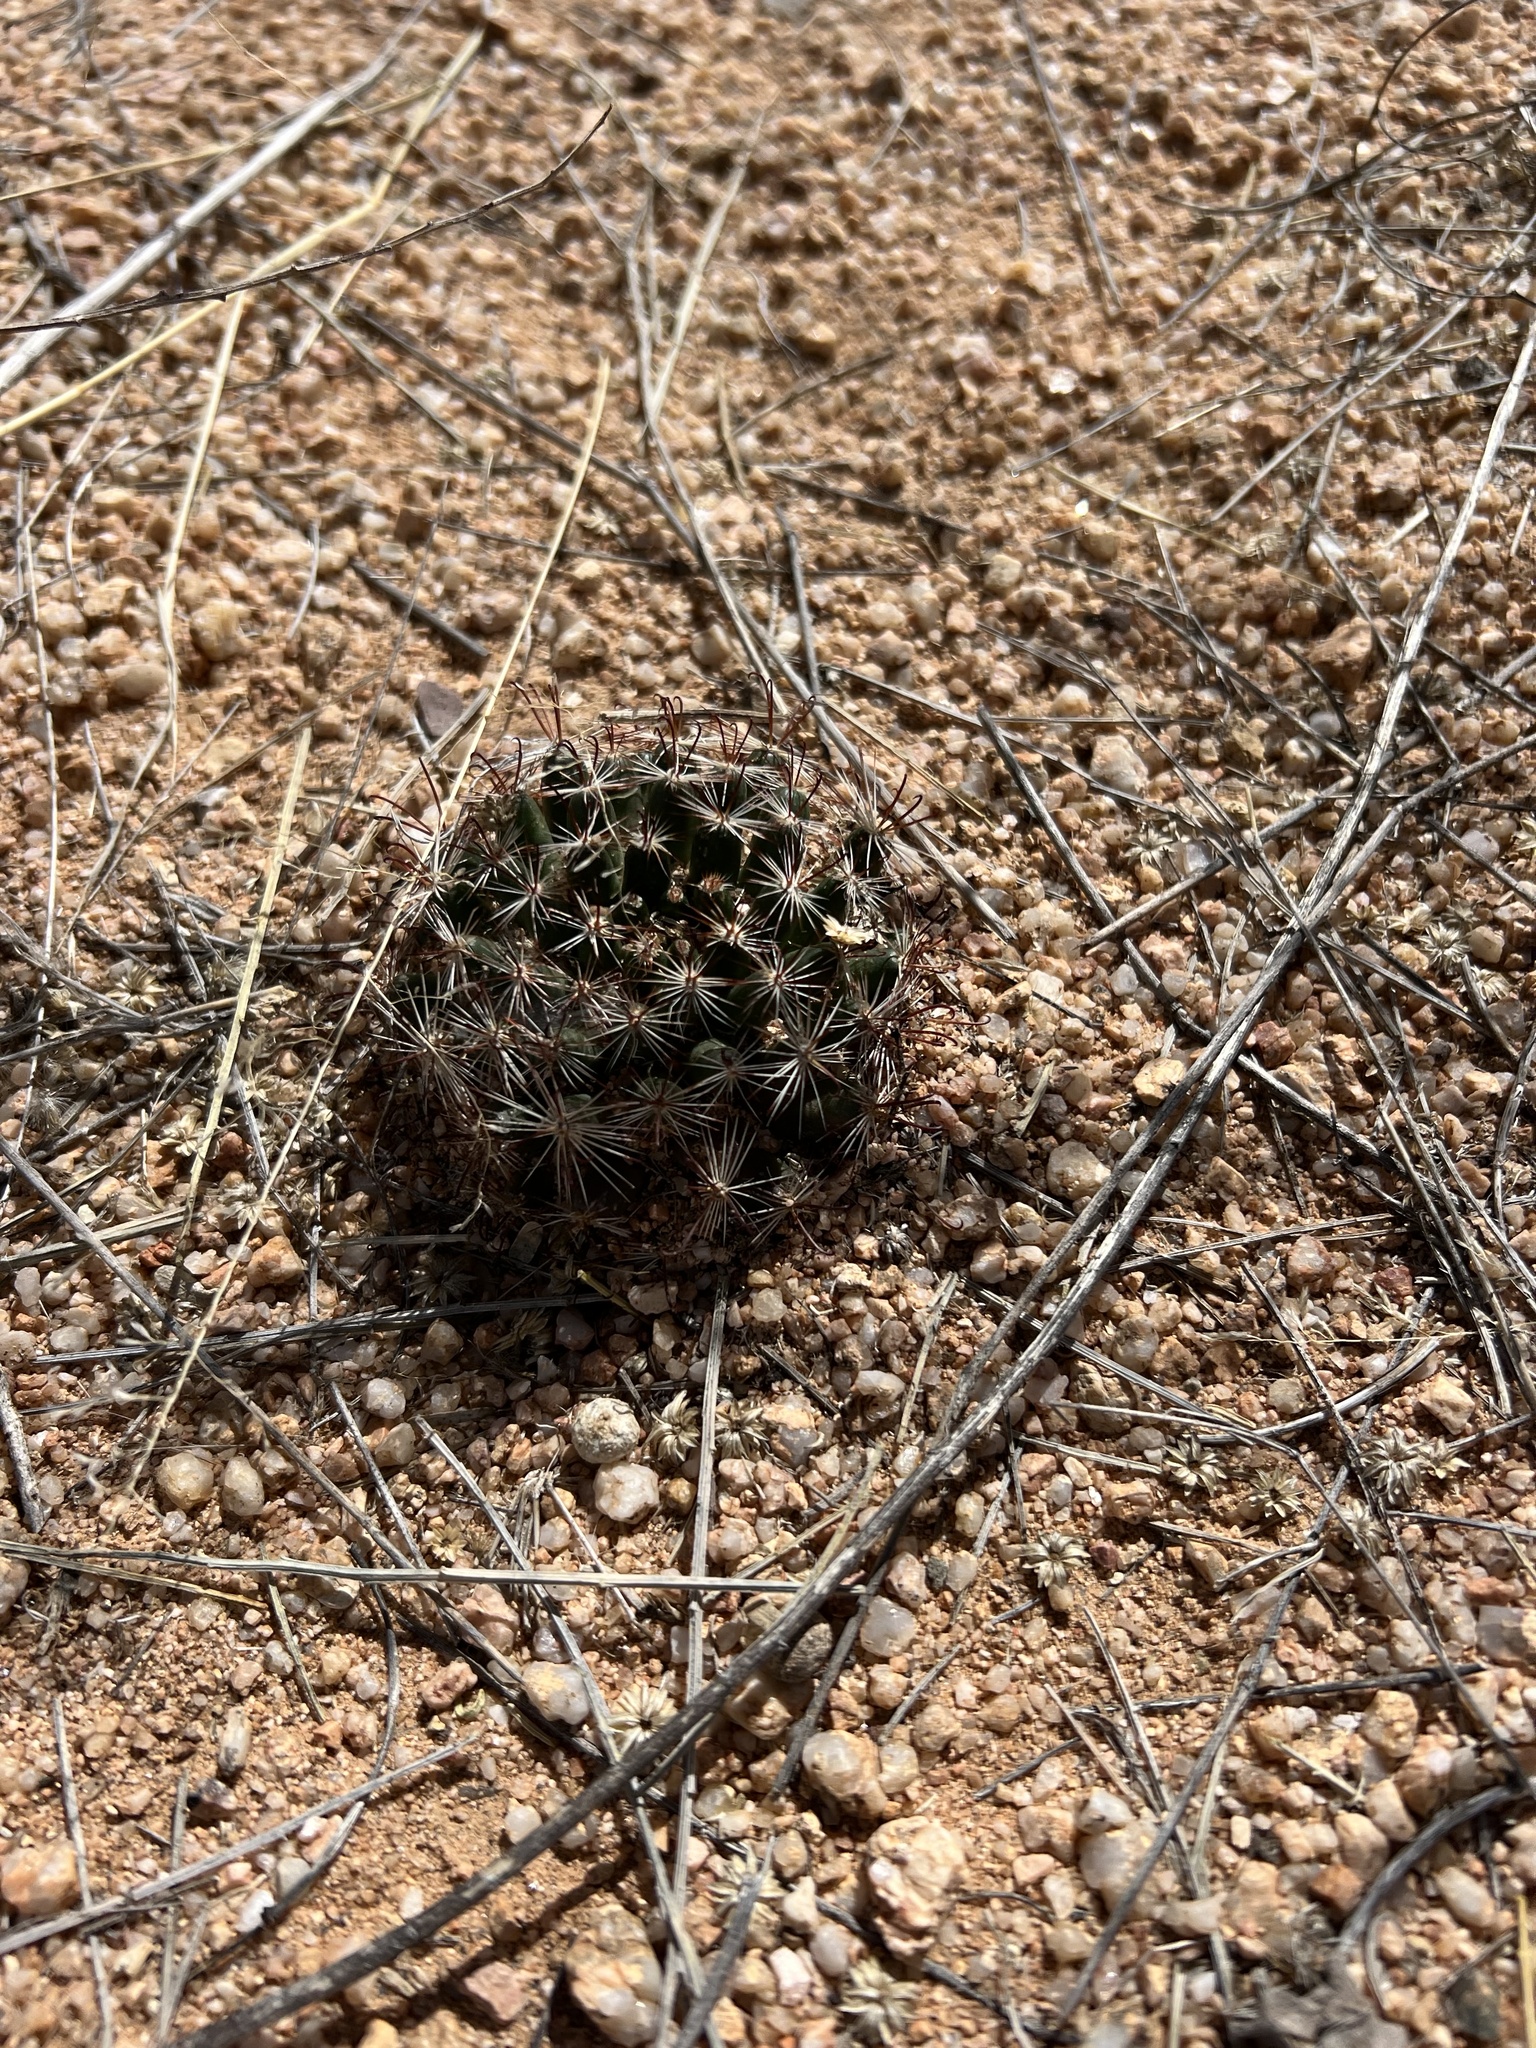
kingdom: Plantae
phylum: Tracheophyta
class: Magnoliopsida
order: Caryophyllales
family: Cactaceae
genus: Cochemiea
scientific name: Cochemiea wrightii
